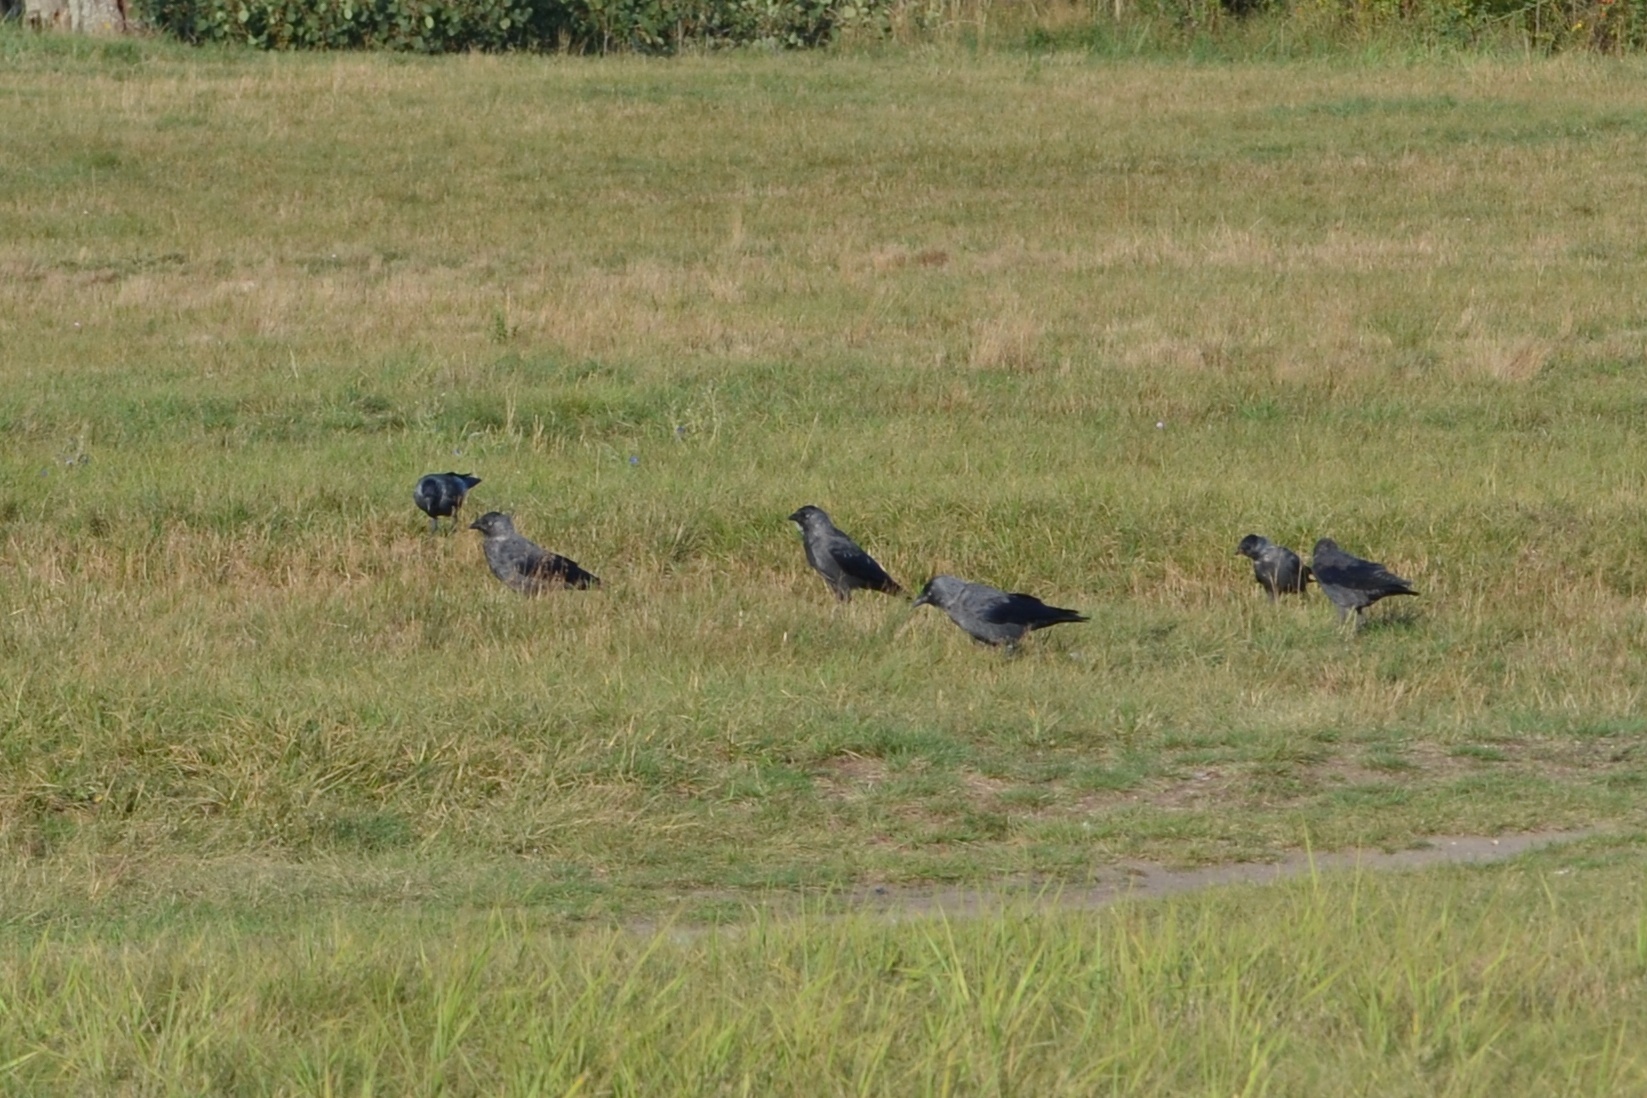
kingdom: Animalia
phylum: Chordata
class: Aves
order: Passeriformes
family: Corvidae
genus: Coloeus
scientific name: Coloeus monedula
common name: Western jackdaw
